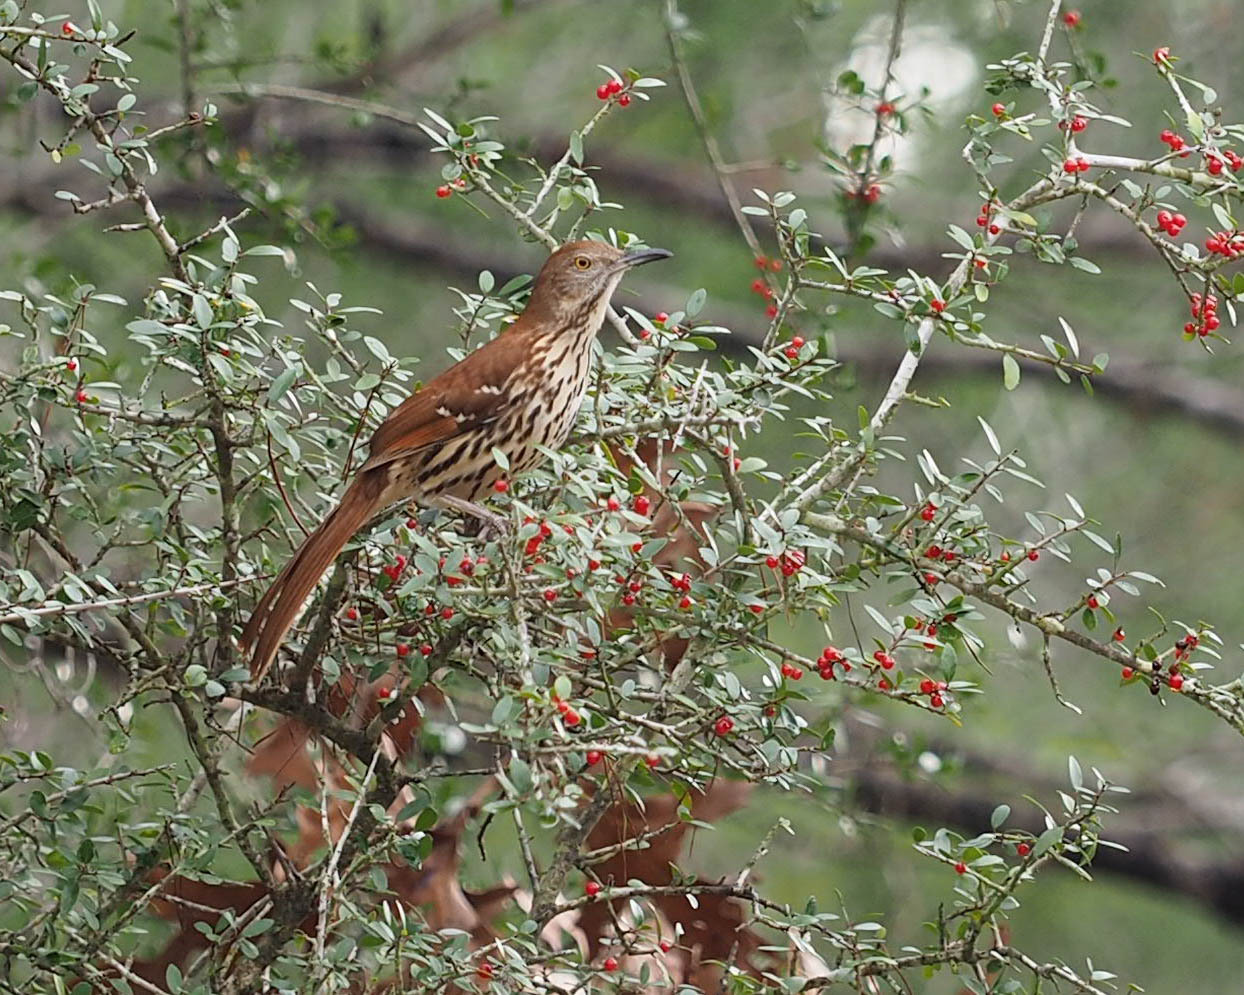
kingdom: Animalia
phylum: Chordata
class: Aves
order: Passeriformes
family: Mimidae
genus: Toxostoma
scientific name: Toxostoma rufum
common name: Brown thrasher
